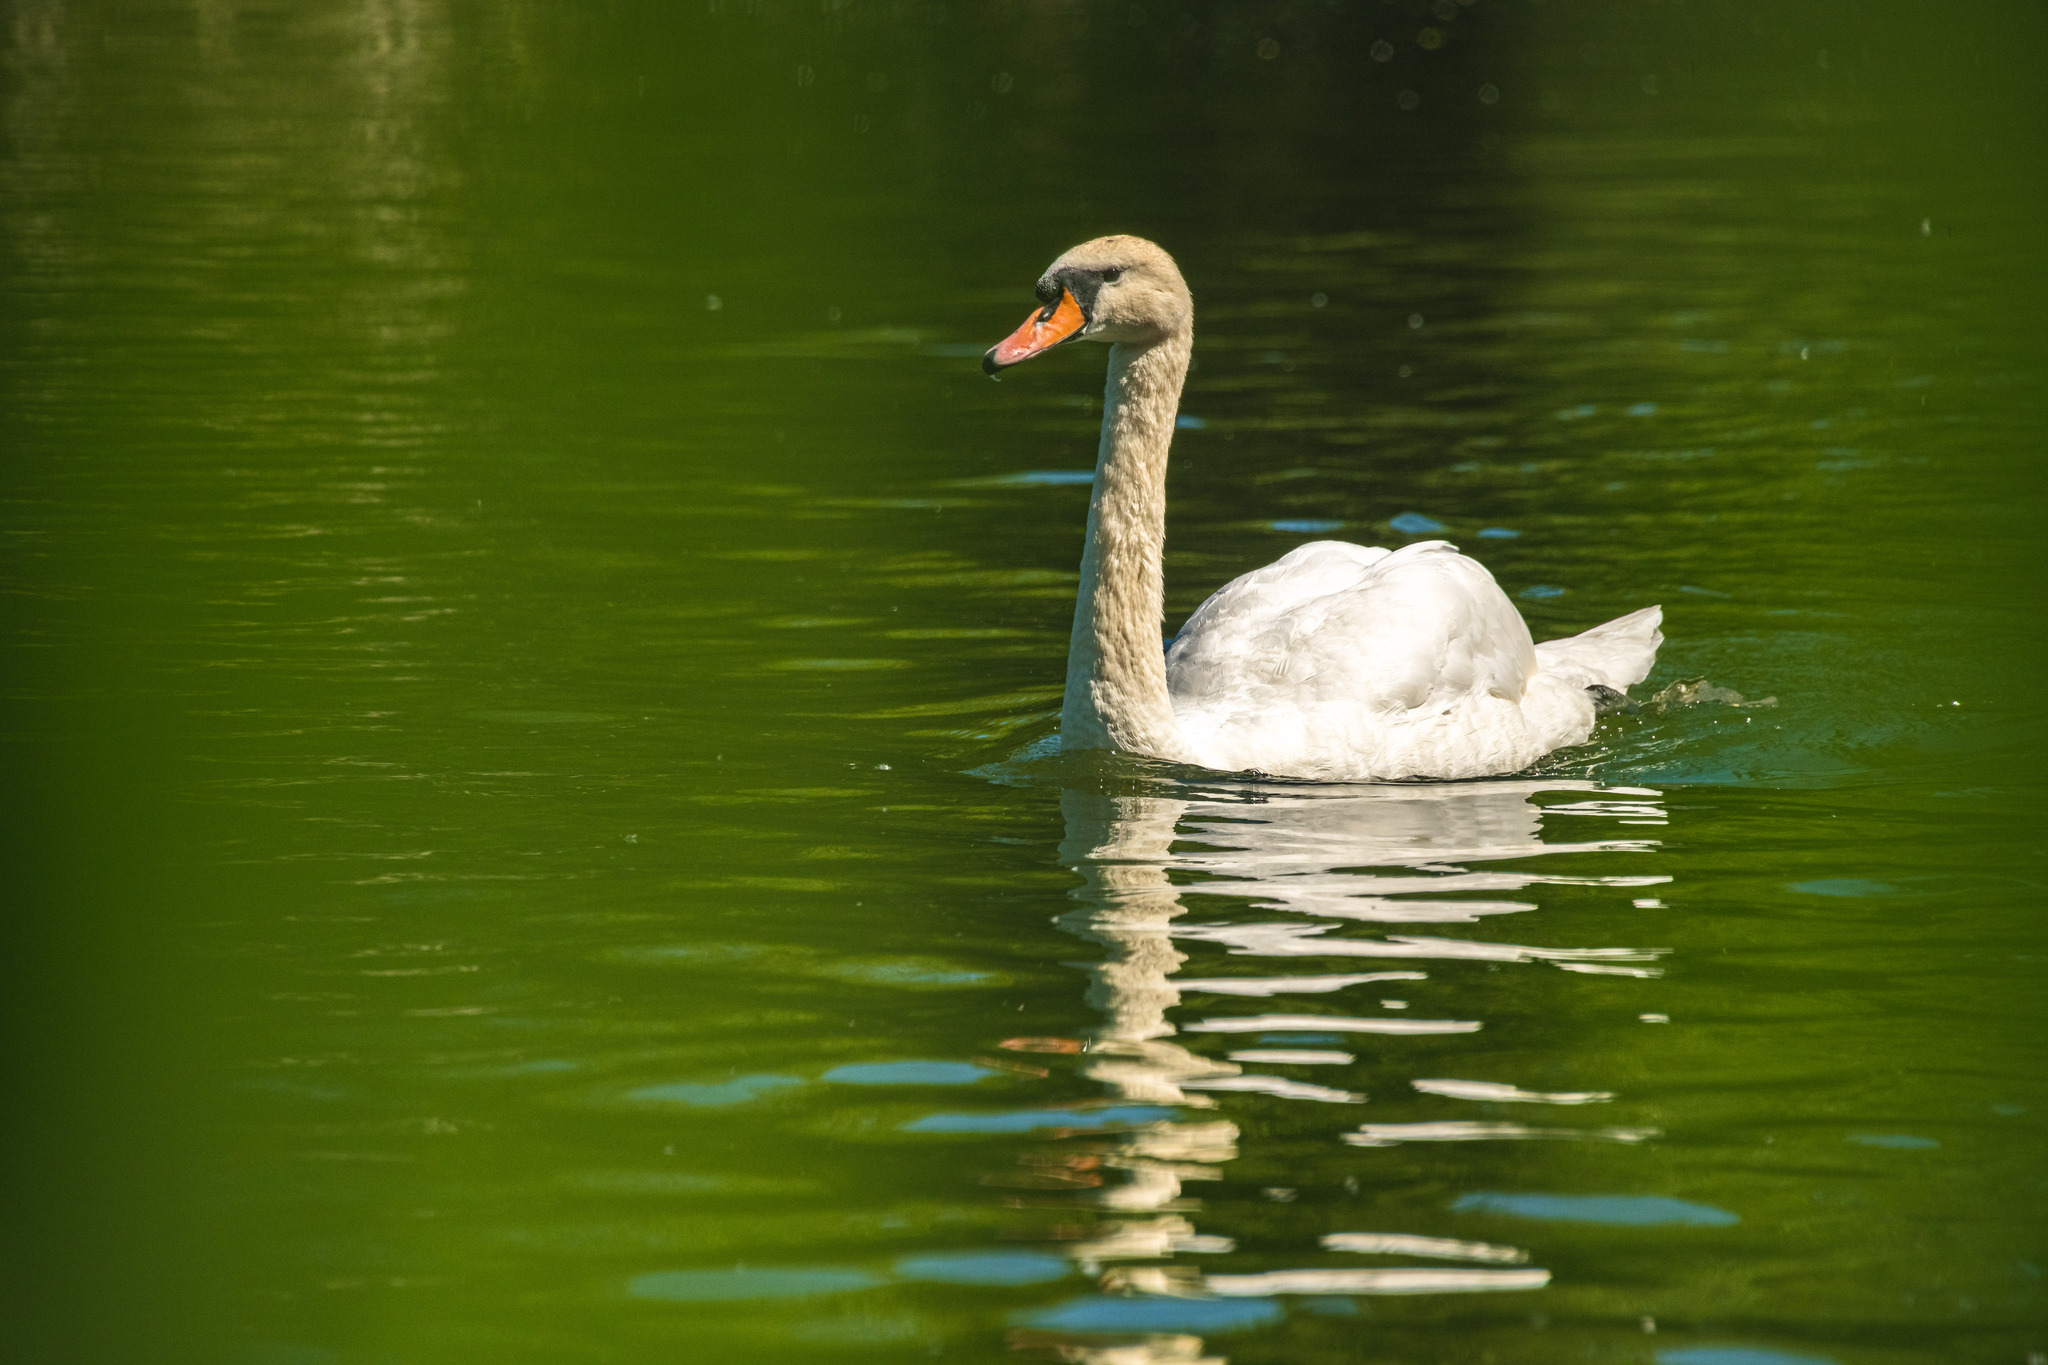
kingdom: Animalia
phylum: Chordata
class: Aves
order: Anseriformes
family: Anatidae
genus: Cygnus
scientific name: Cygnus olor
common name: Mute swan
